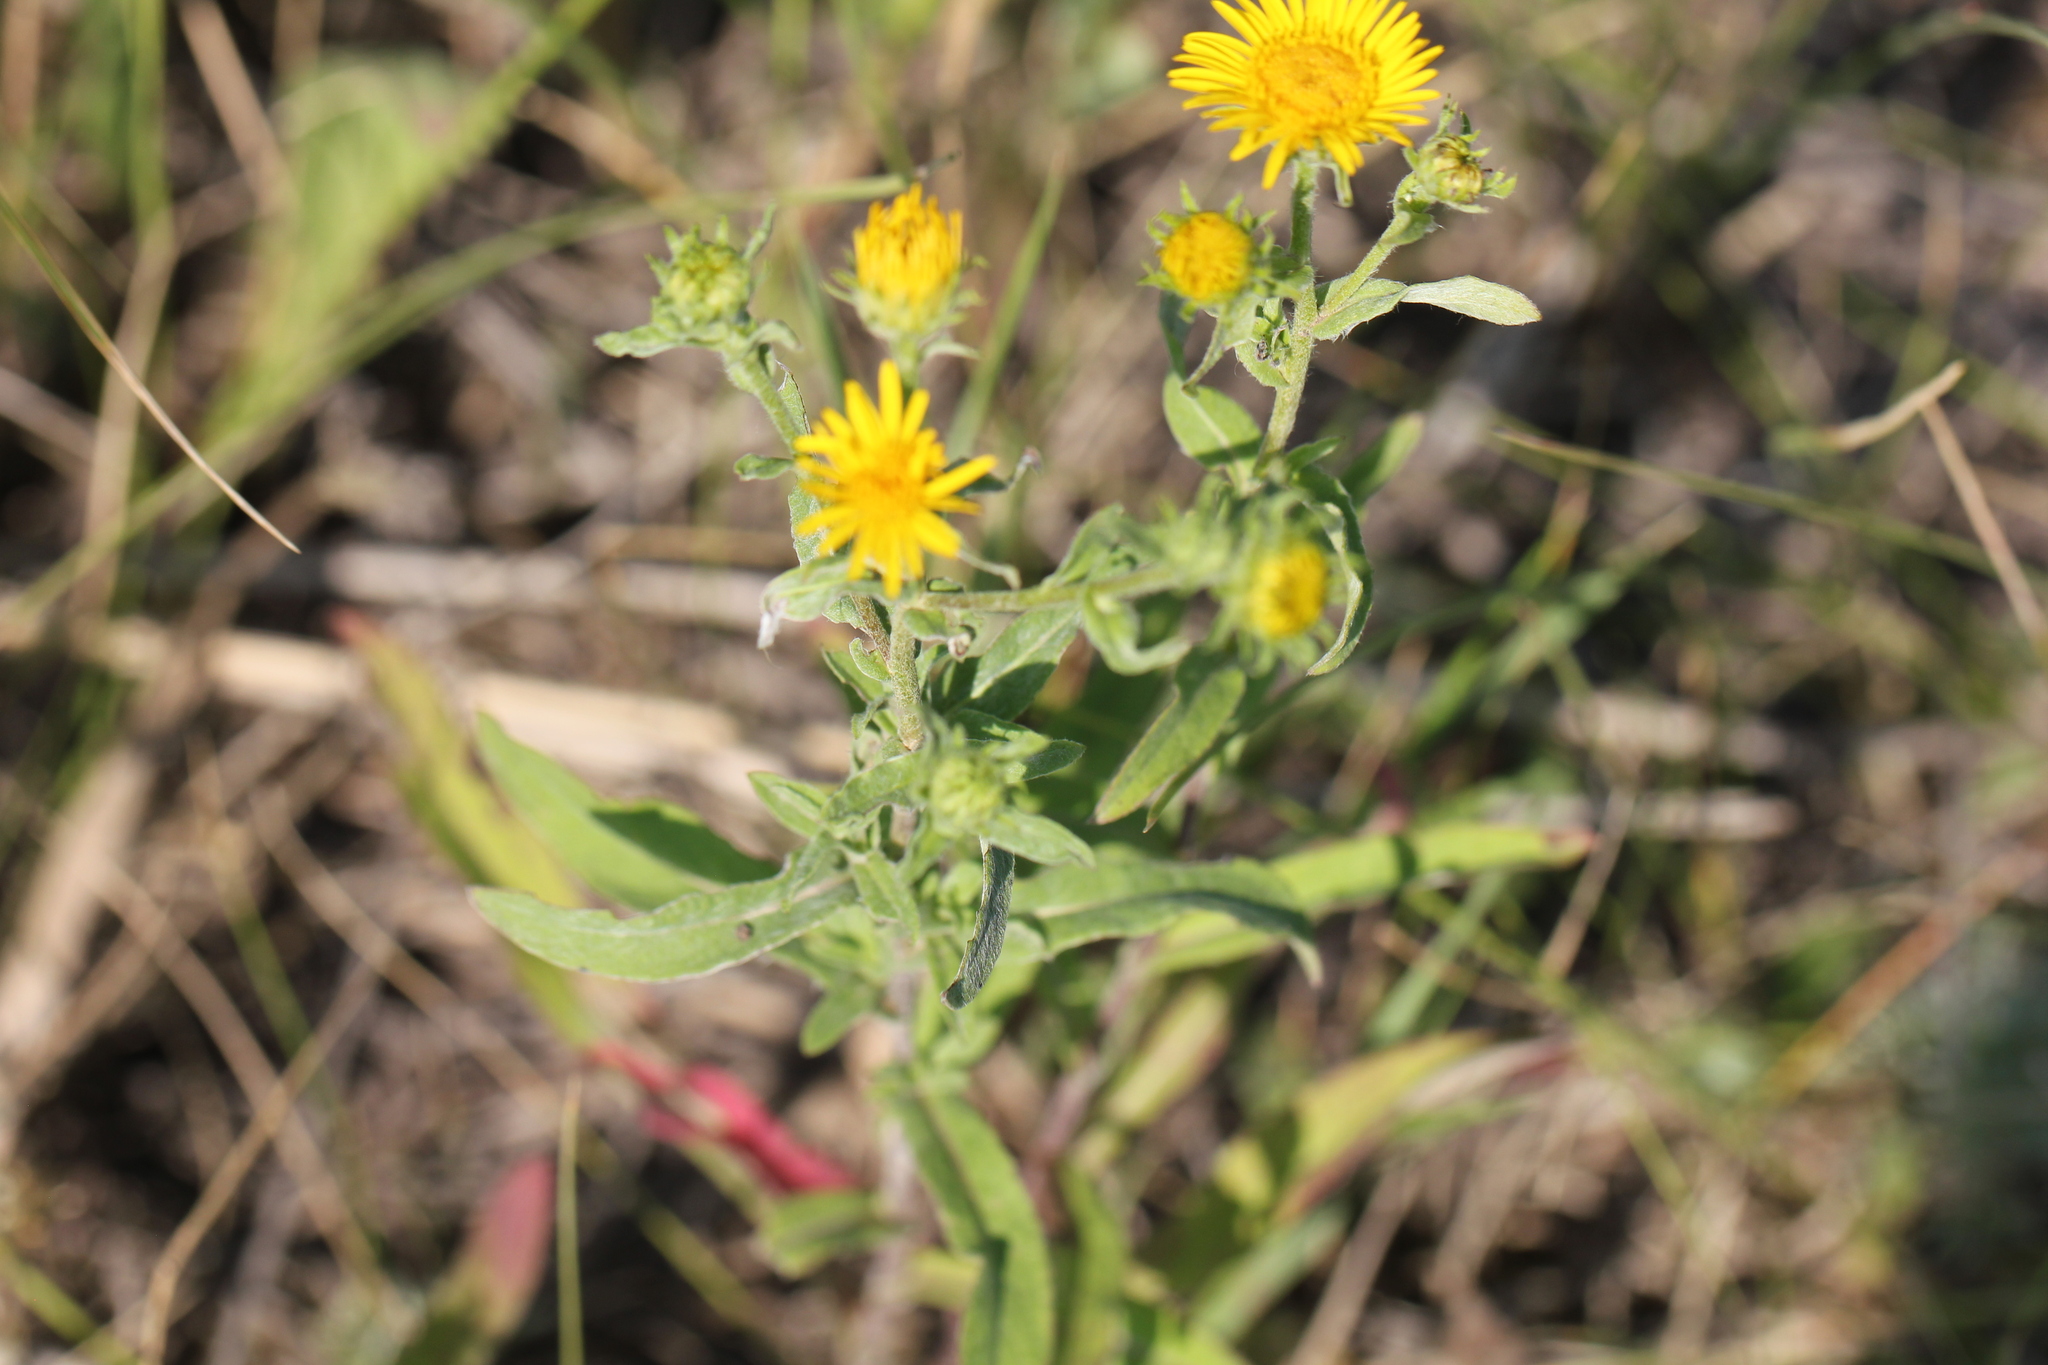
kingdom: Plantae
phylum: Tracheophyta
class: Magnoliopsida
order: Asterales
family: Asteraceae
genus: Pentanema
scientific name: Pentanema britannicum
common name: British elecampane
